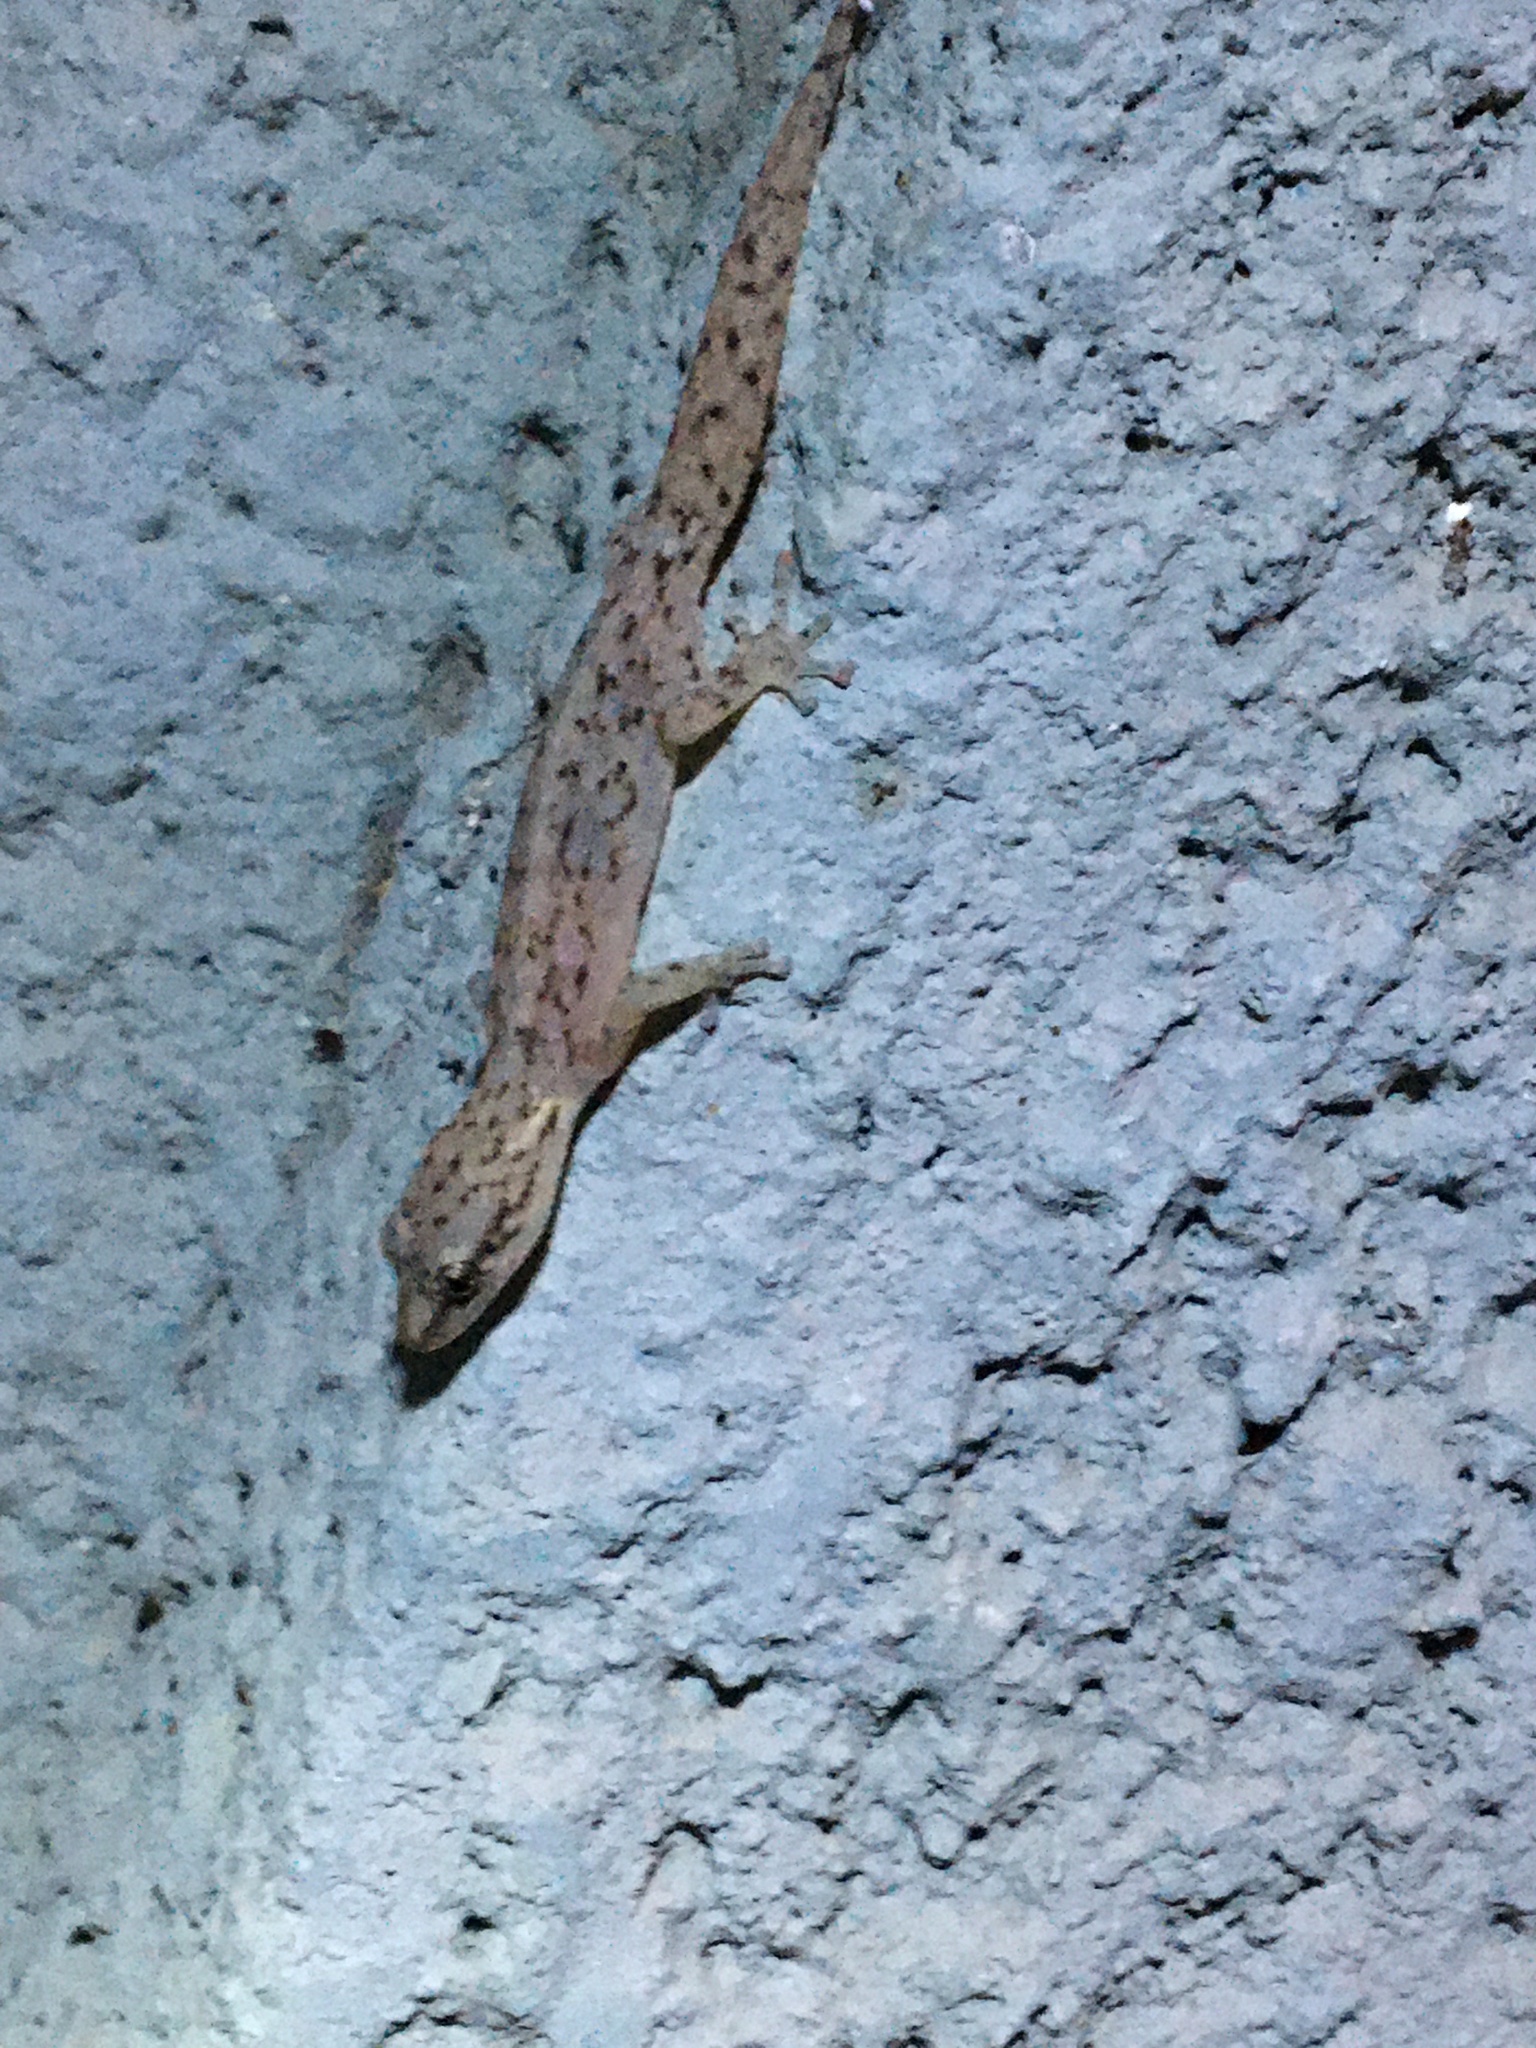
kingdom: Animalia
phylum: Chordata
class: Squamata
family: Gekkonidae
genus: Afrogecko
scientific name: Afrogecko porphyreus
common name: Marbled leaf-toed gecko
